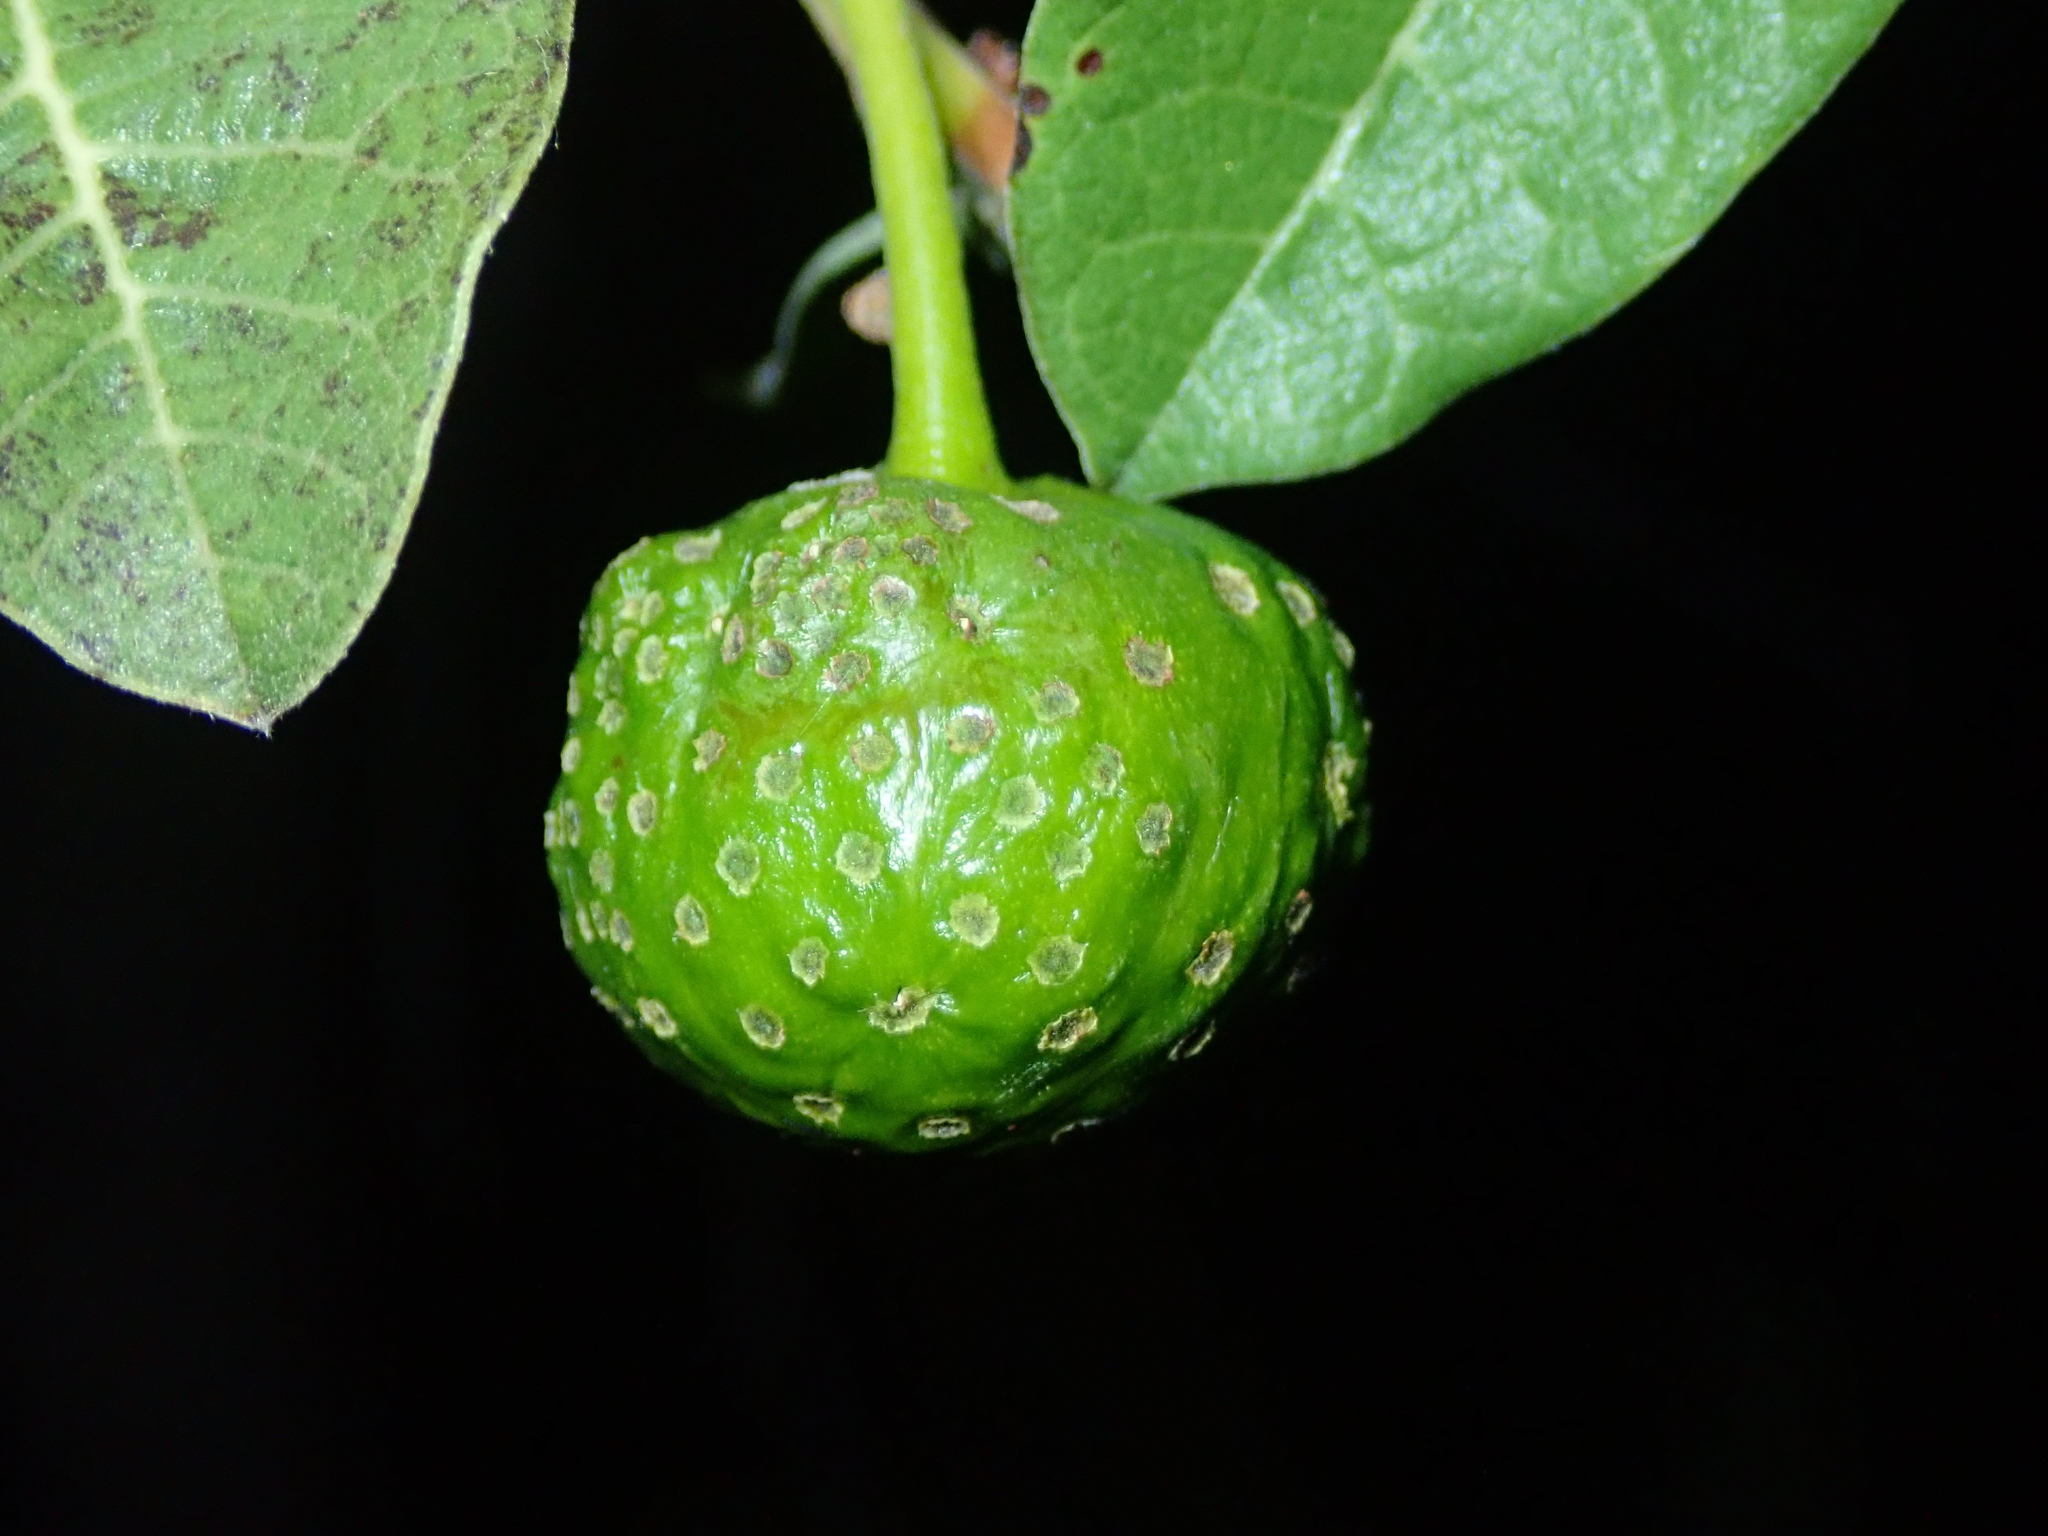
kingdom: Plantae
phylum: Tracheophyta
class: Magnoliopsida
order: Rosales
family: Moraceae
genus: Brosimum
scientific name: Brosimum gaudichaudii
